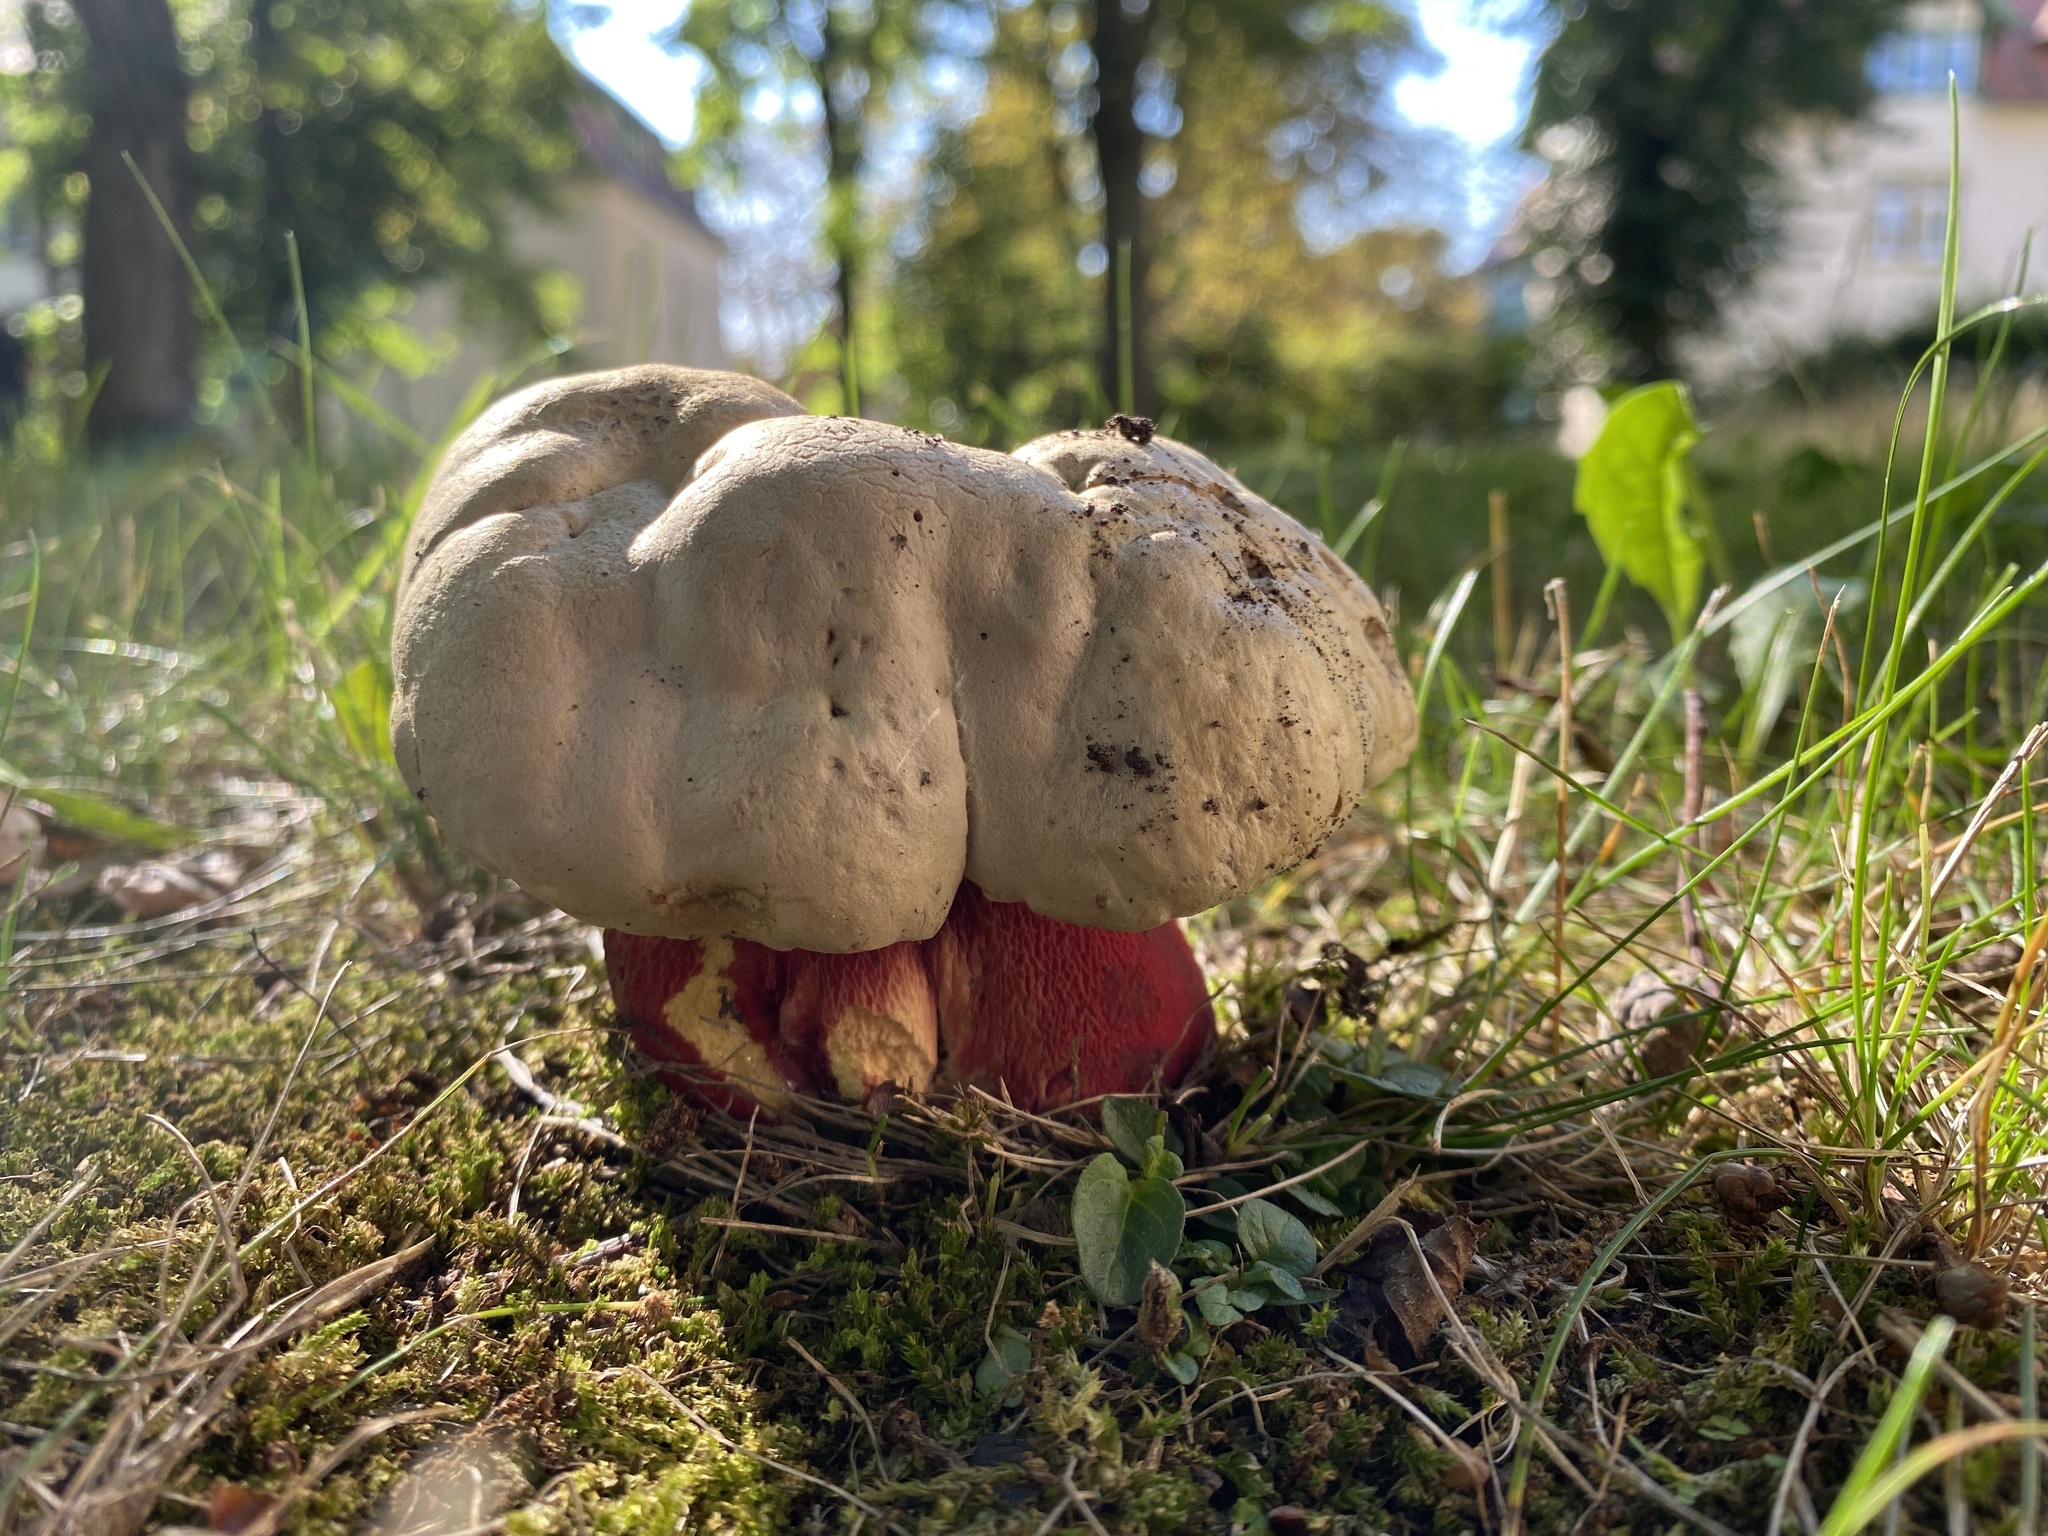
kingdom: Fungi
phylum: Basidiomycota
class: Agaricomycetes
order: Boletales
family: Boletaceae
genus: Rubroboletus
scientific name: Rubroboletus satanas
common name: Devil's bolete
